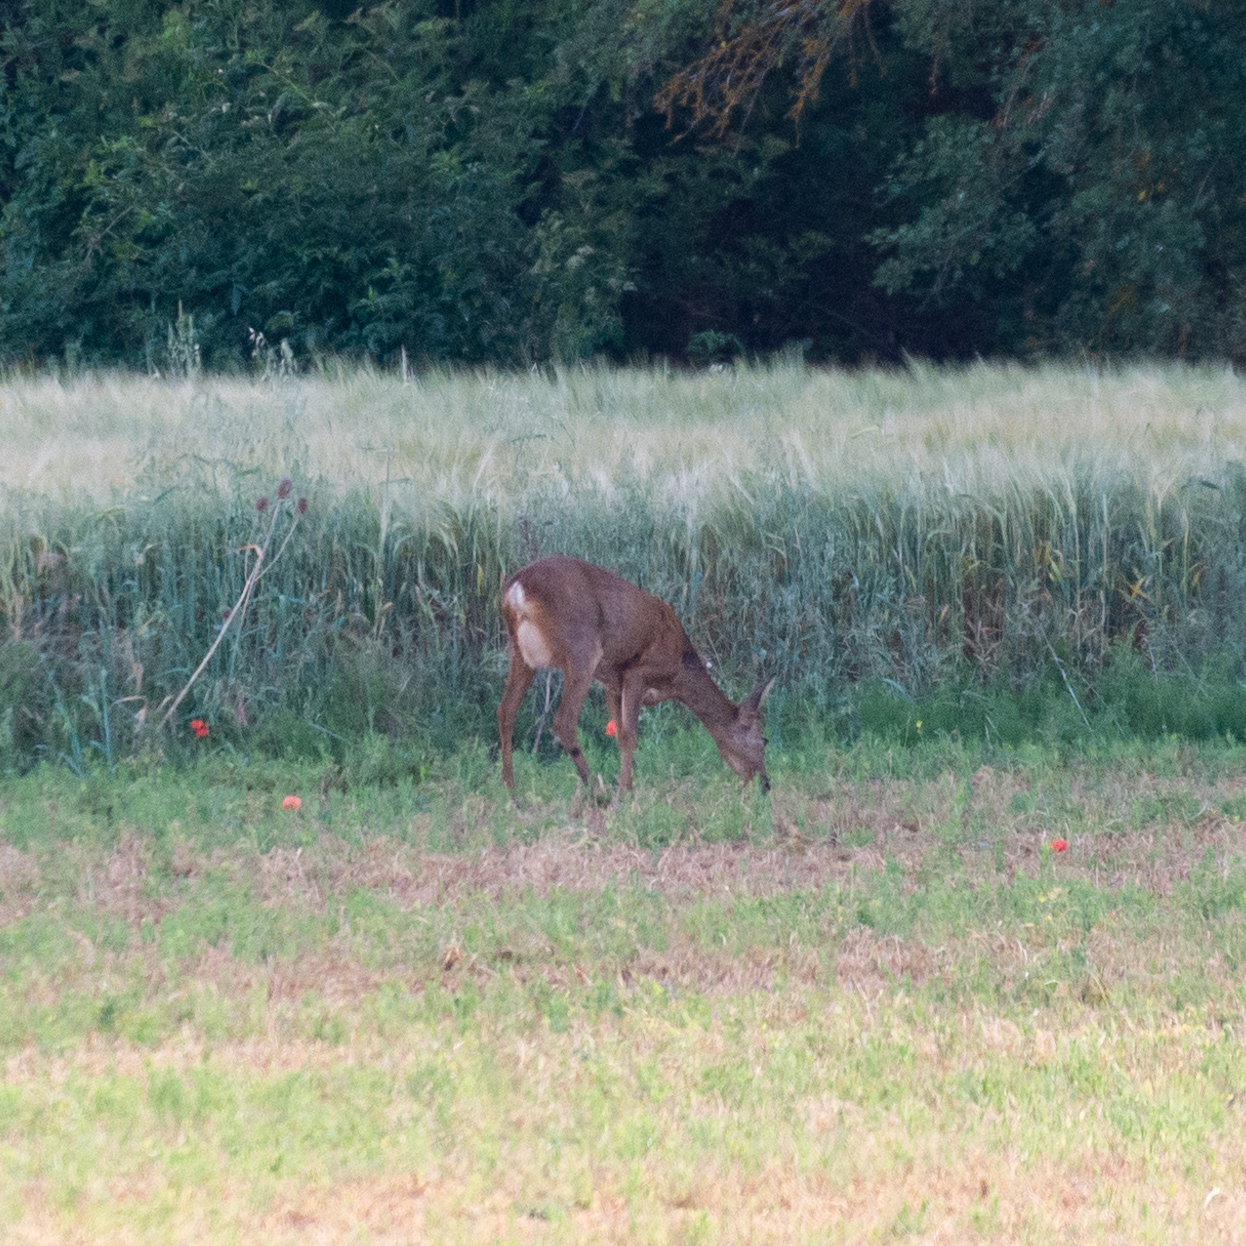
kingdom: Animalia
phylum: Chordata
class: Mammalia
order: Artiodactyla
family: Cervidae
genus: Capreolus
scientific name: Capreolus capreolus
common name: Western roe deer
